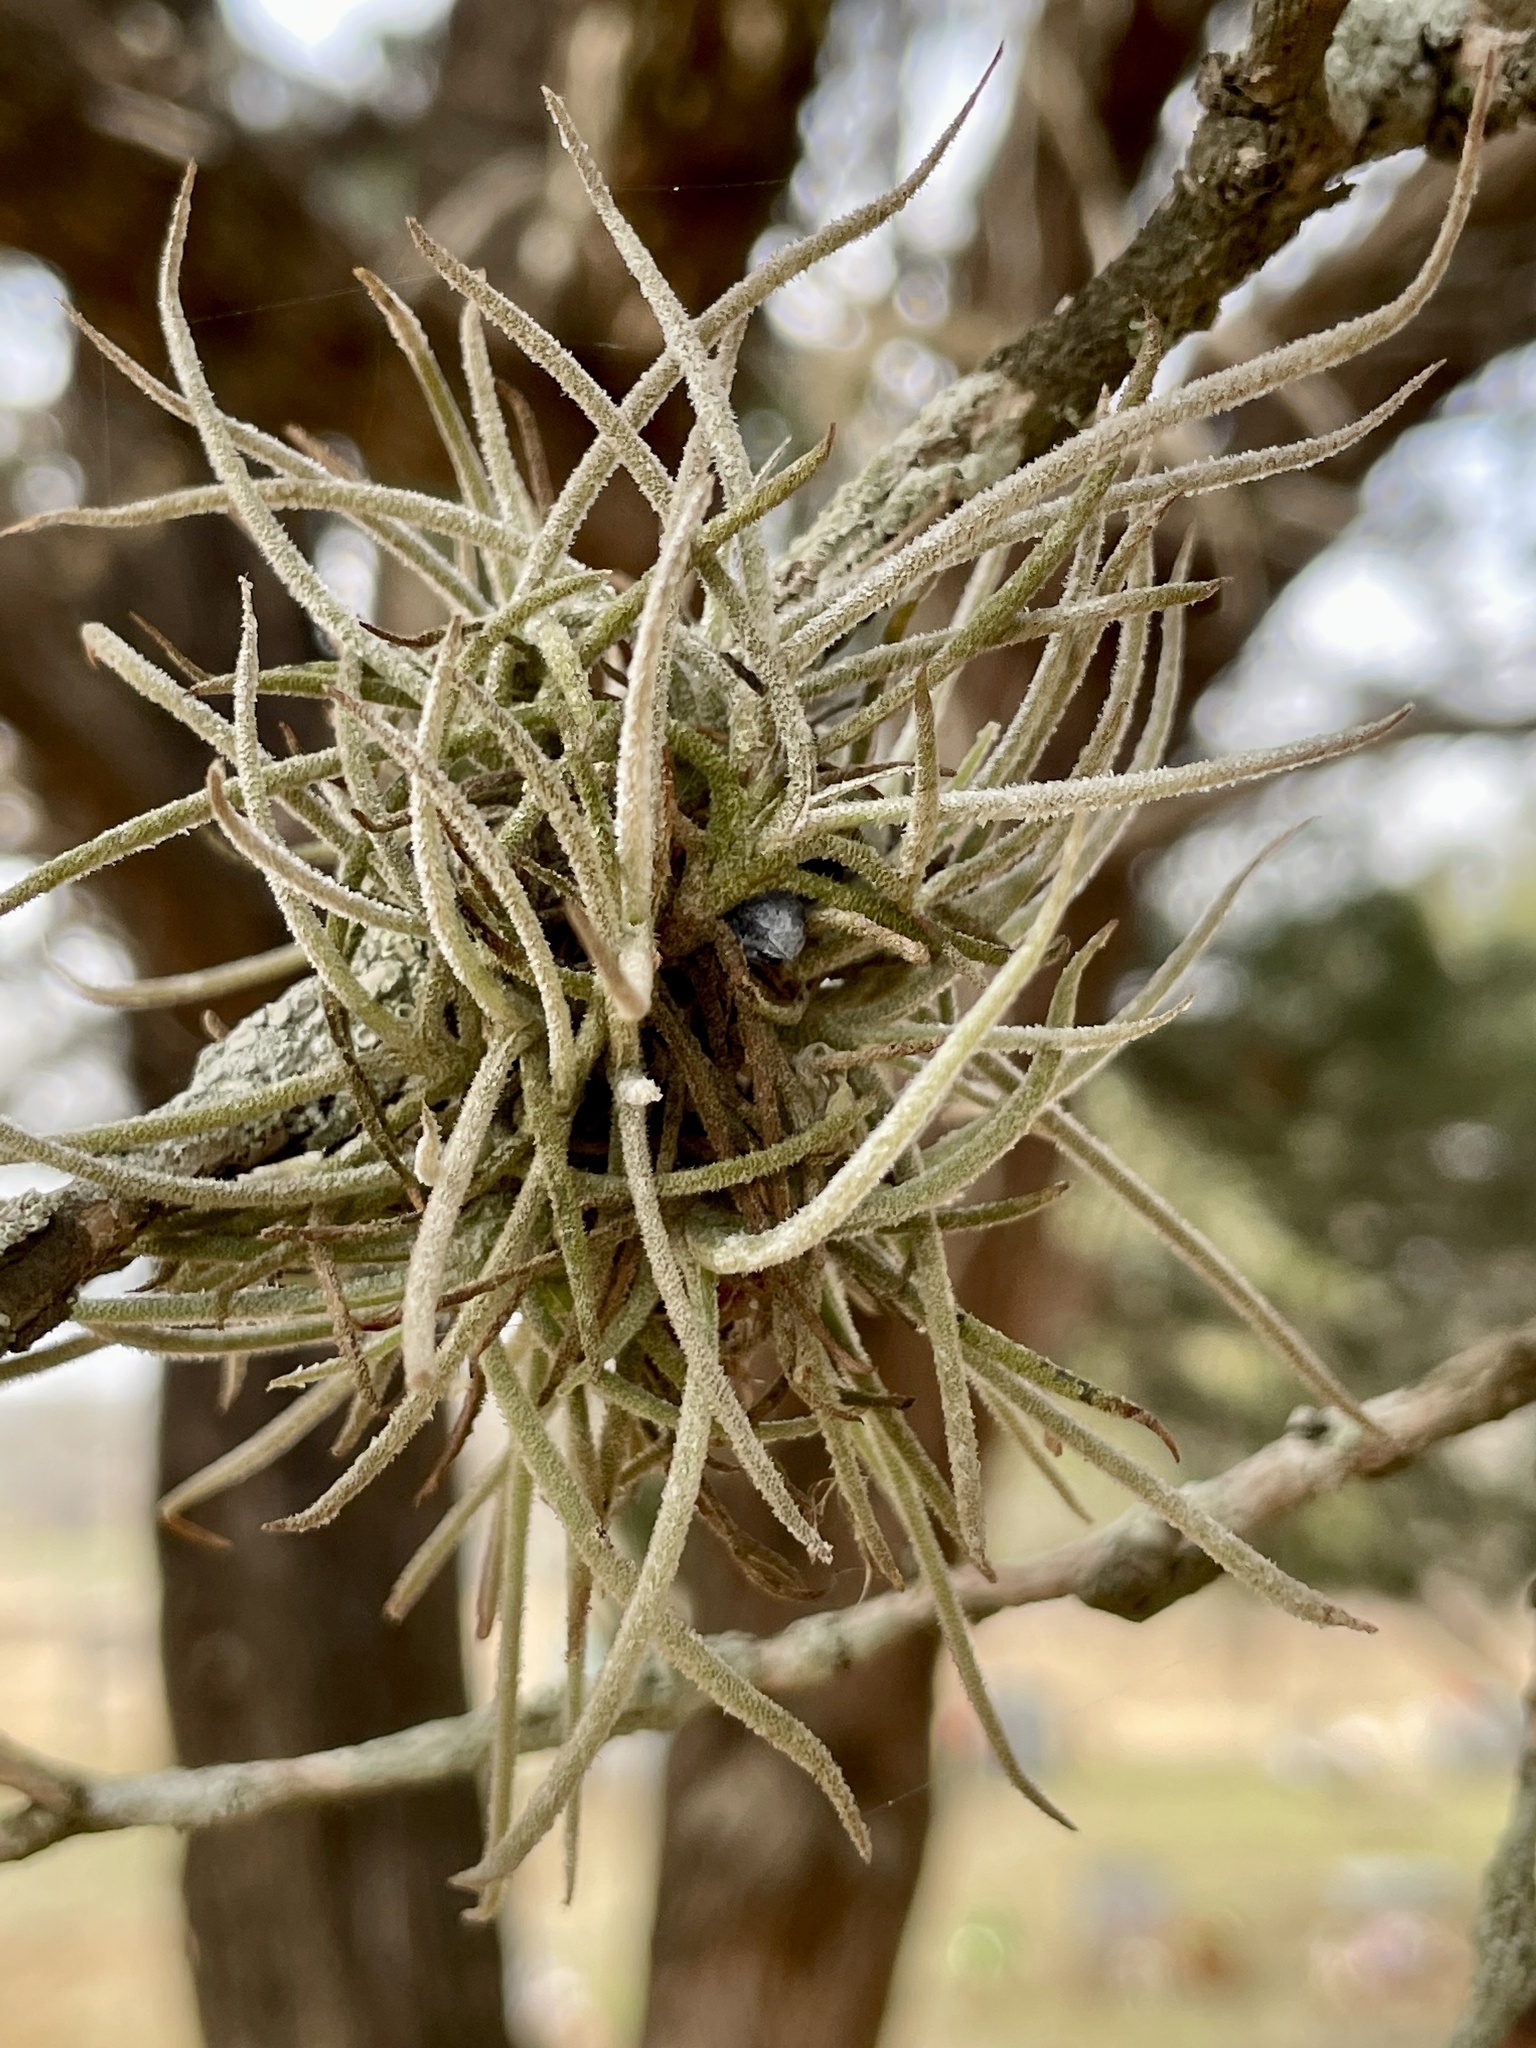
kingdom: Plantae
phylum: Tracheophyta
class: Liliopsida
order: Poales
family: Bromeliaceae
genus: Tillandsia
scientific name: Tillandsia recurvata
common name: Small ballmoss
